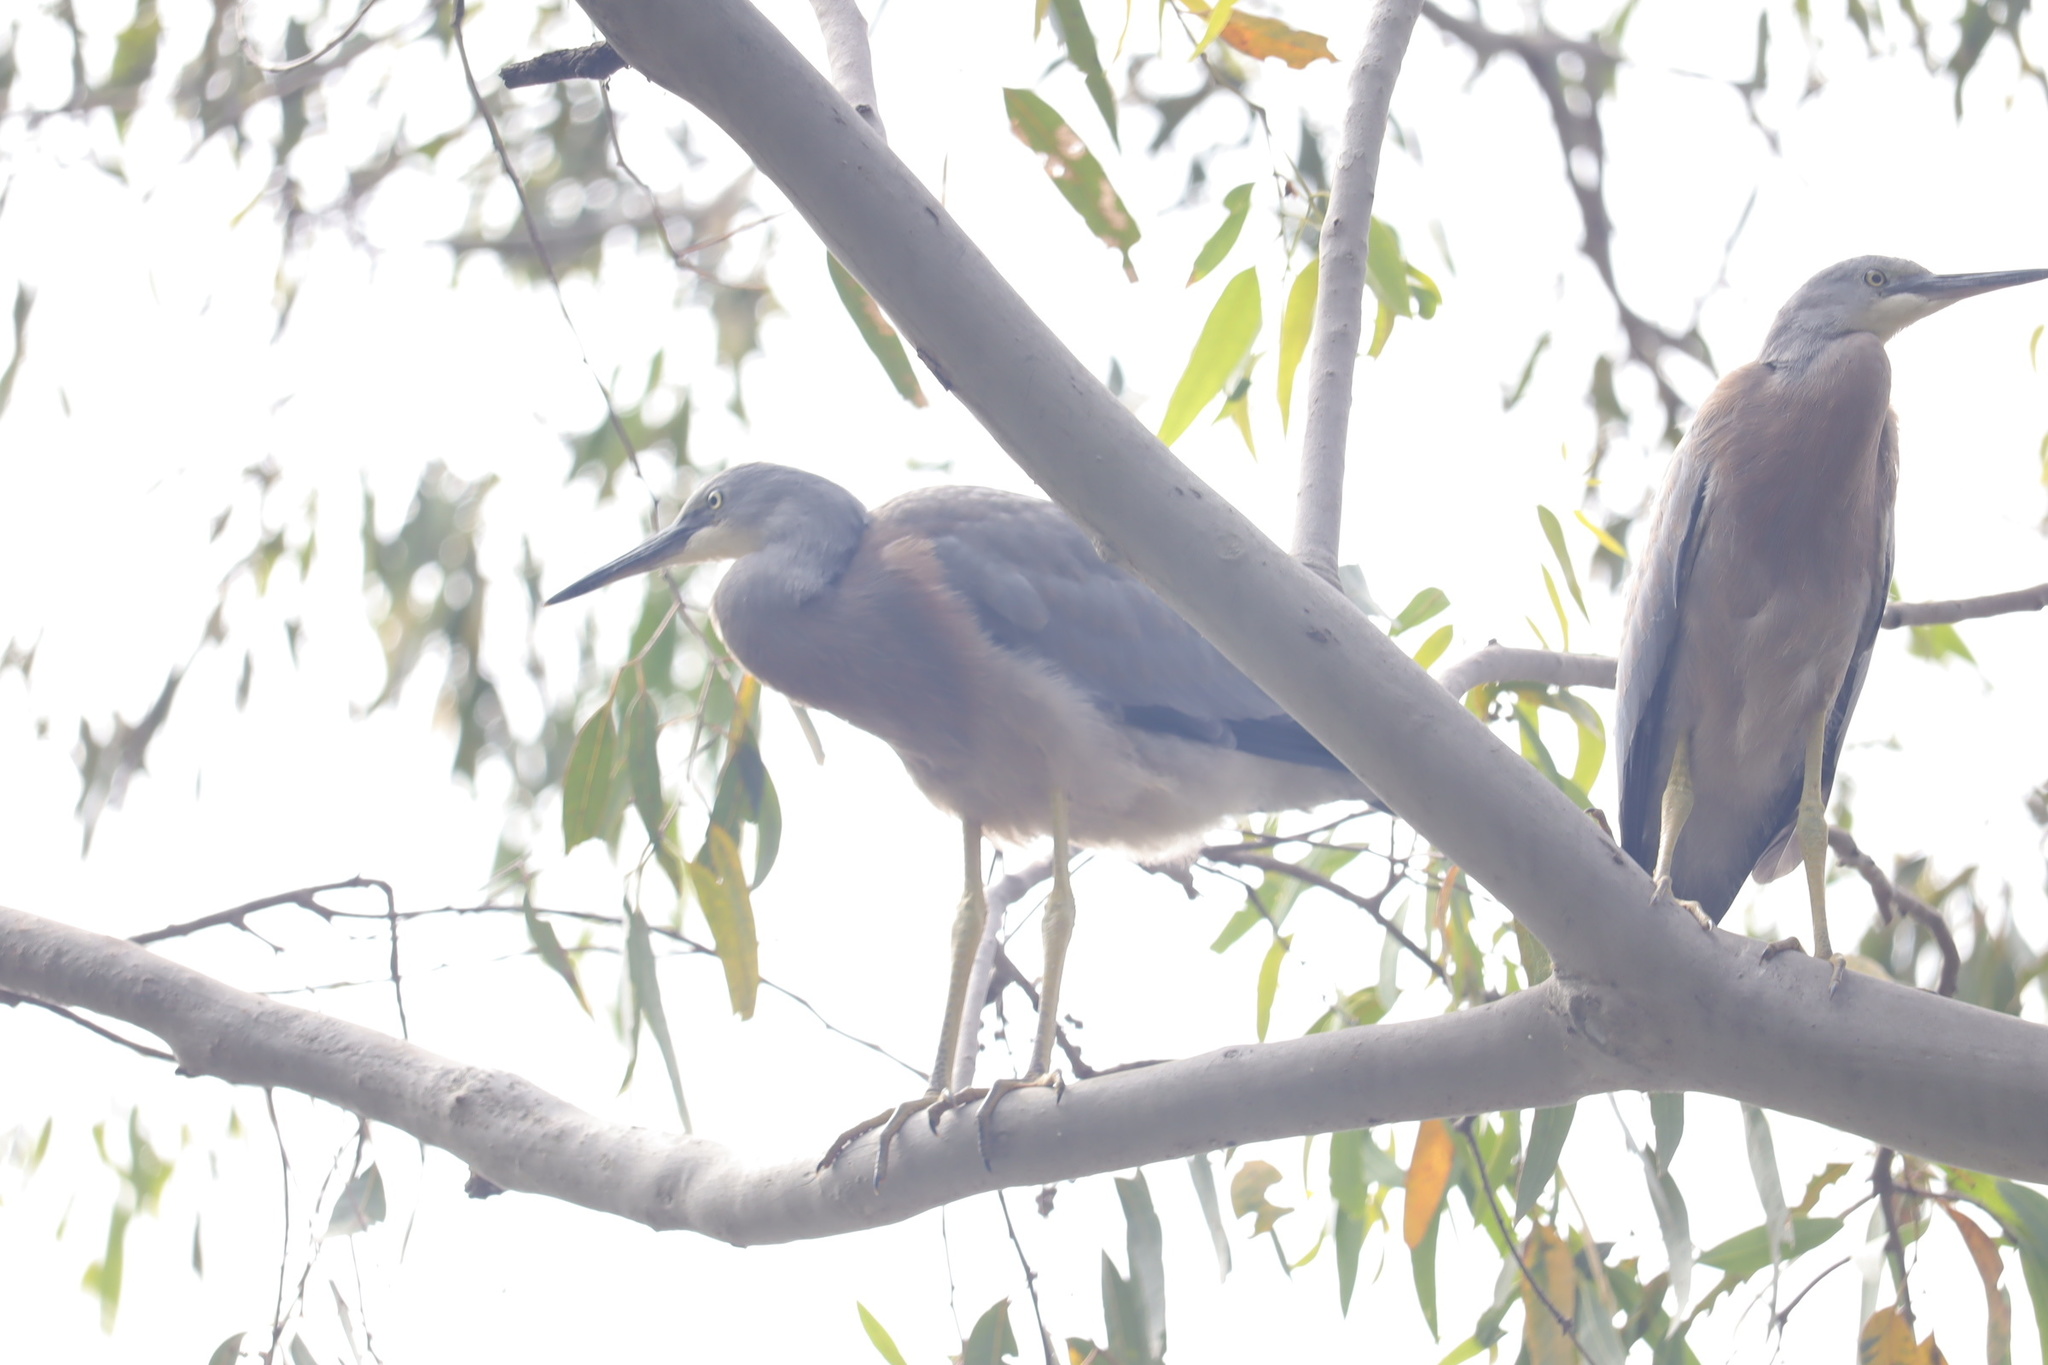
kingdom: Animalia
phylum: Chordata
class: Aves
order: Pelecaniformes
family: Ardeidae
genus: Egretta
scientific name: Egretta novaehollandiae
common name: White-faced heron
